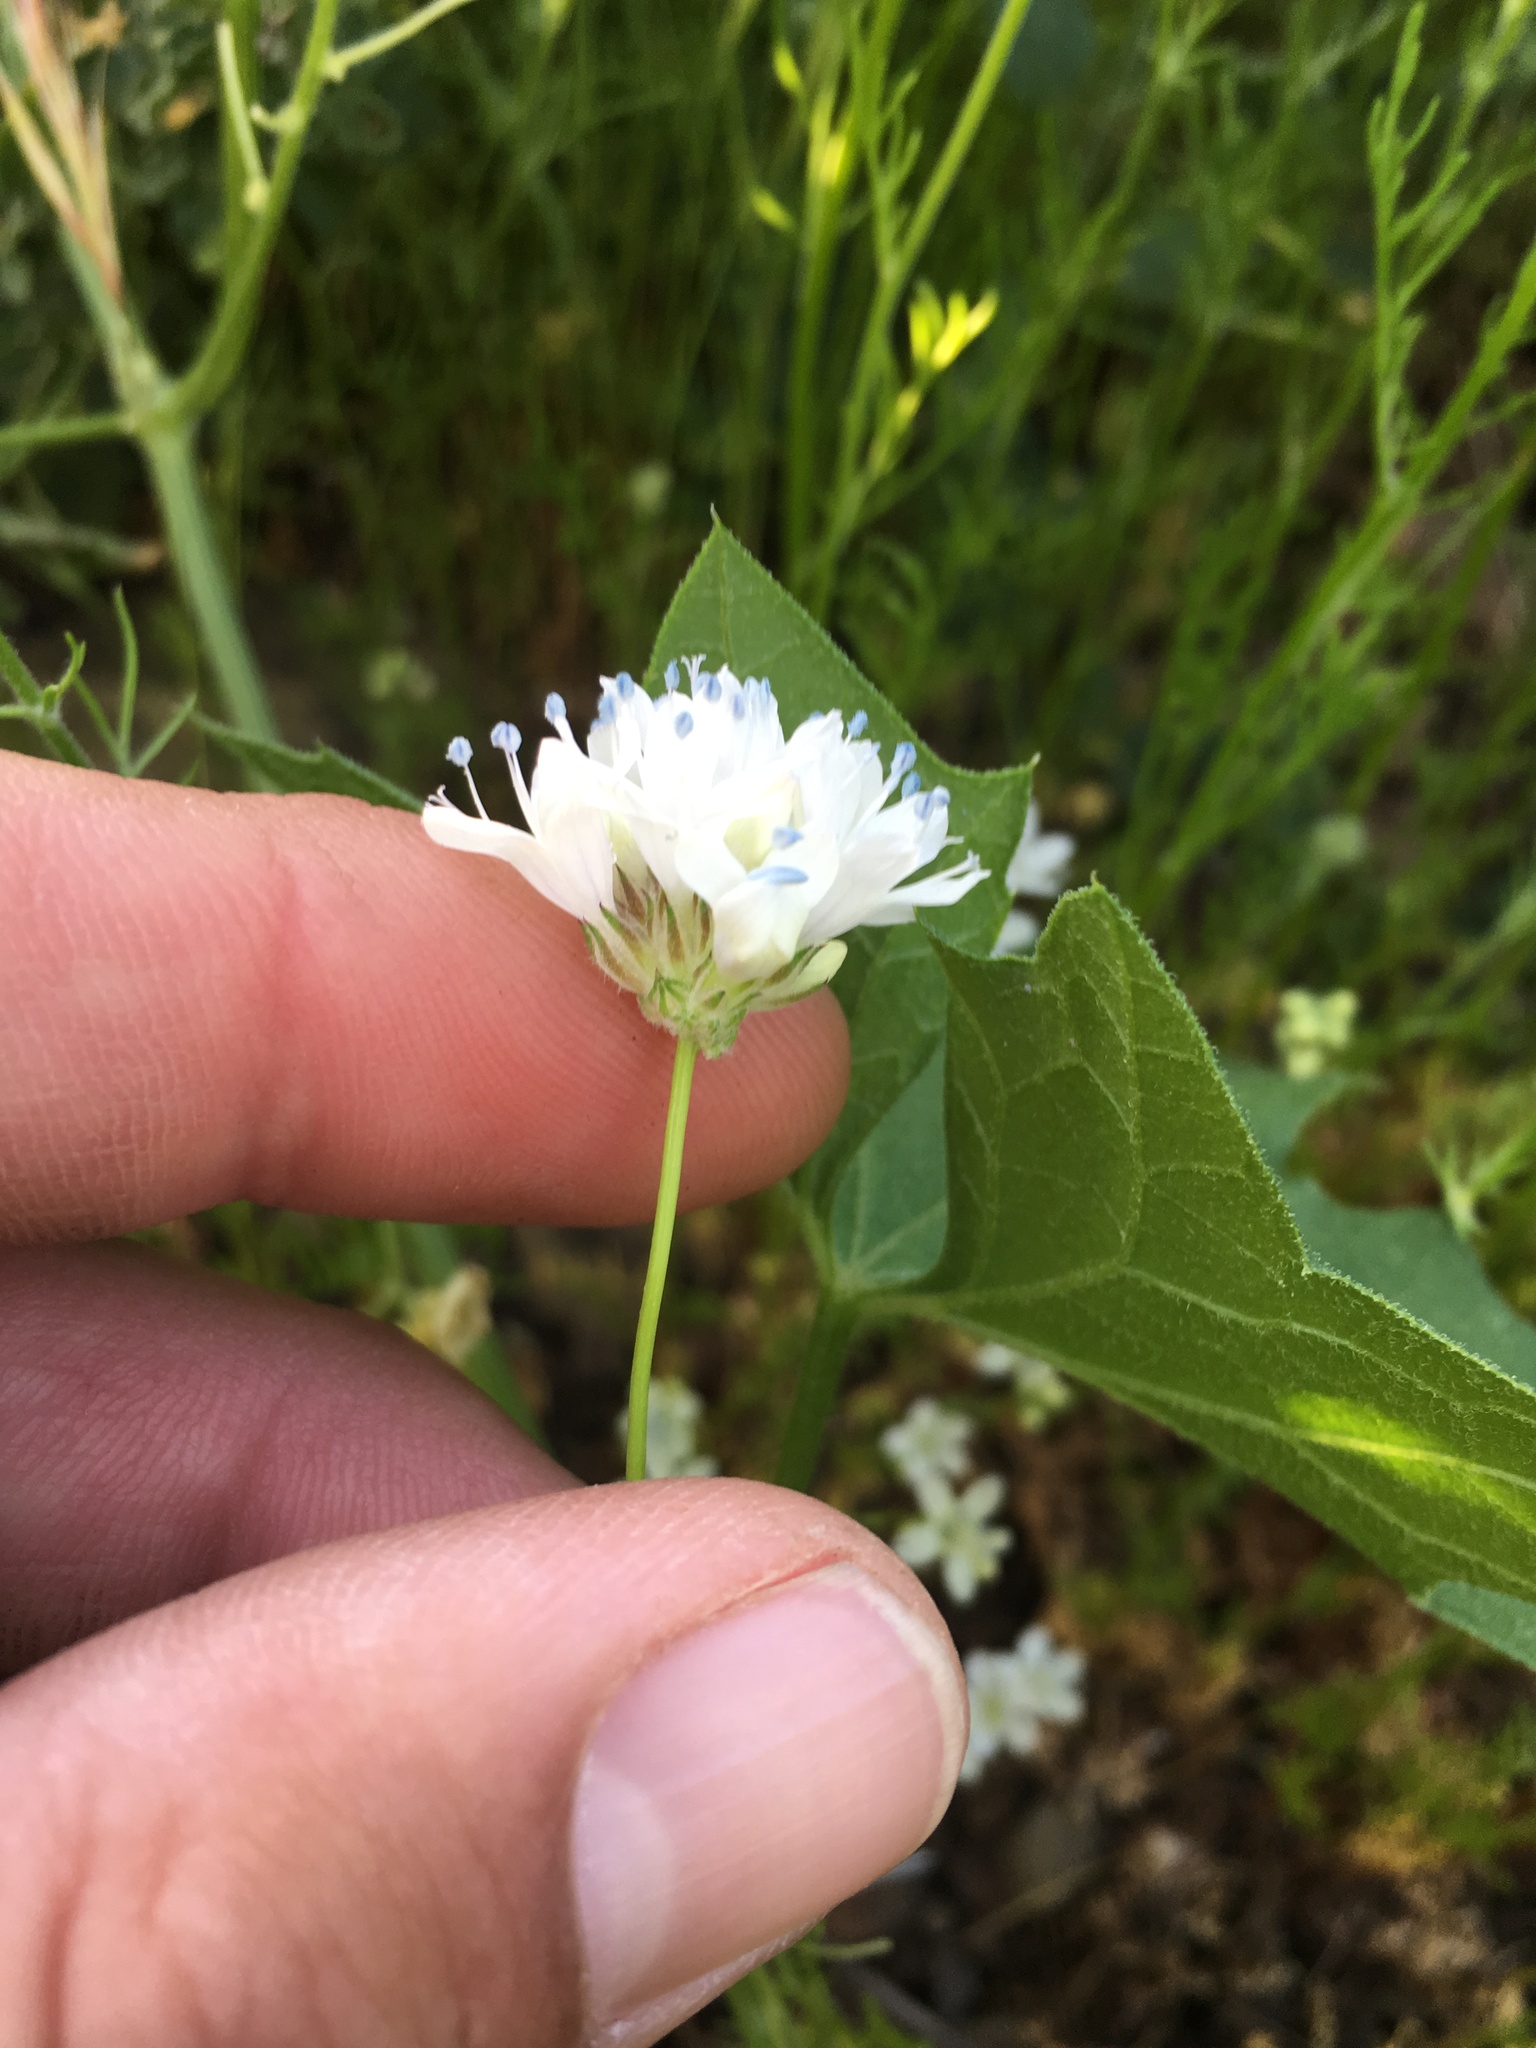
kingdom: Plantae
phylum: Tracheophyta
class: Magnoliopsida
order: Ericales
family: Polemoniaceae
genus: Gilia
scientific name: Gilia capitata
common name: Bluehead gilia
